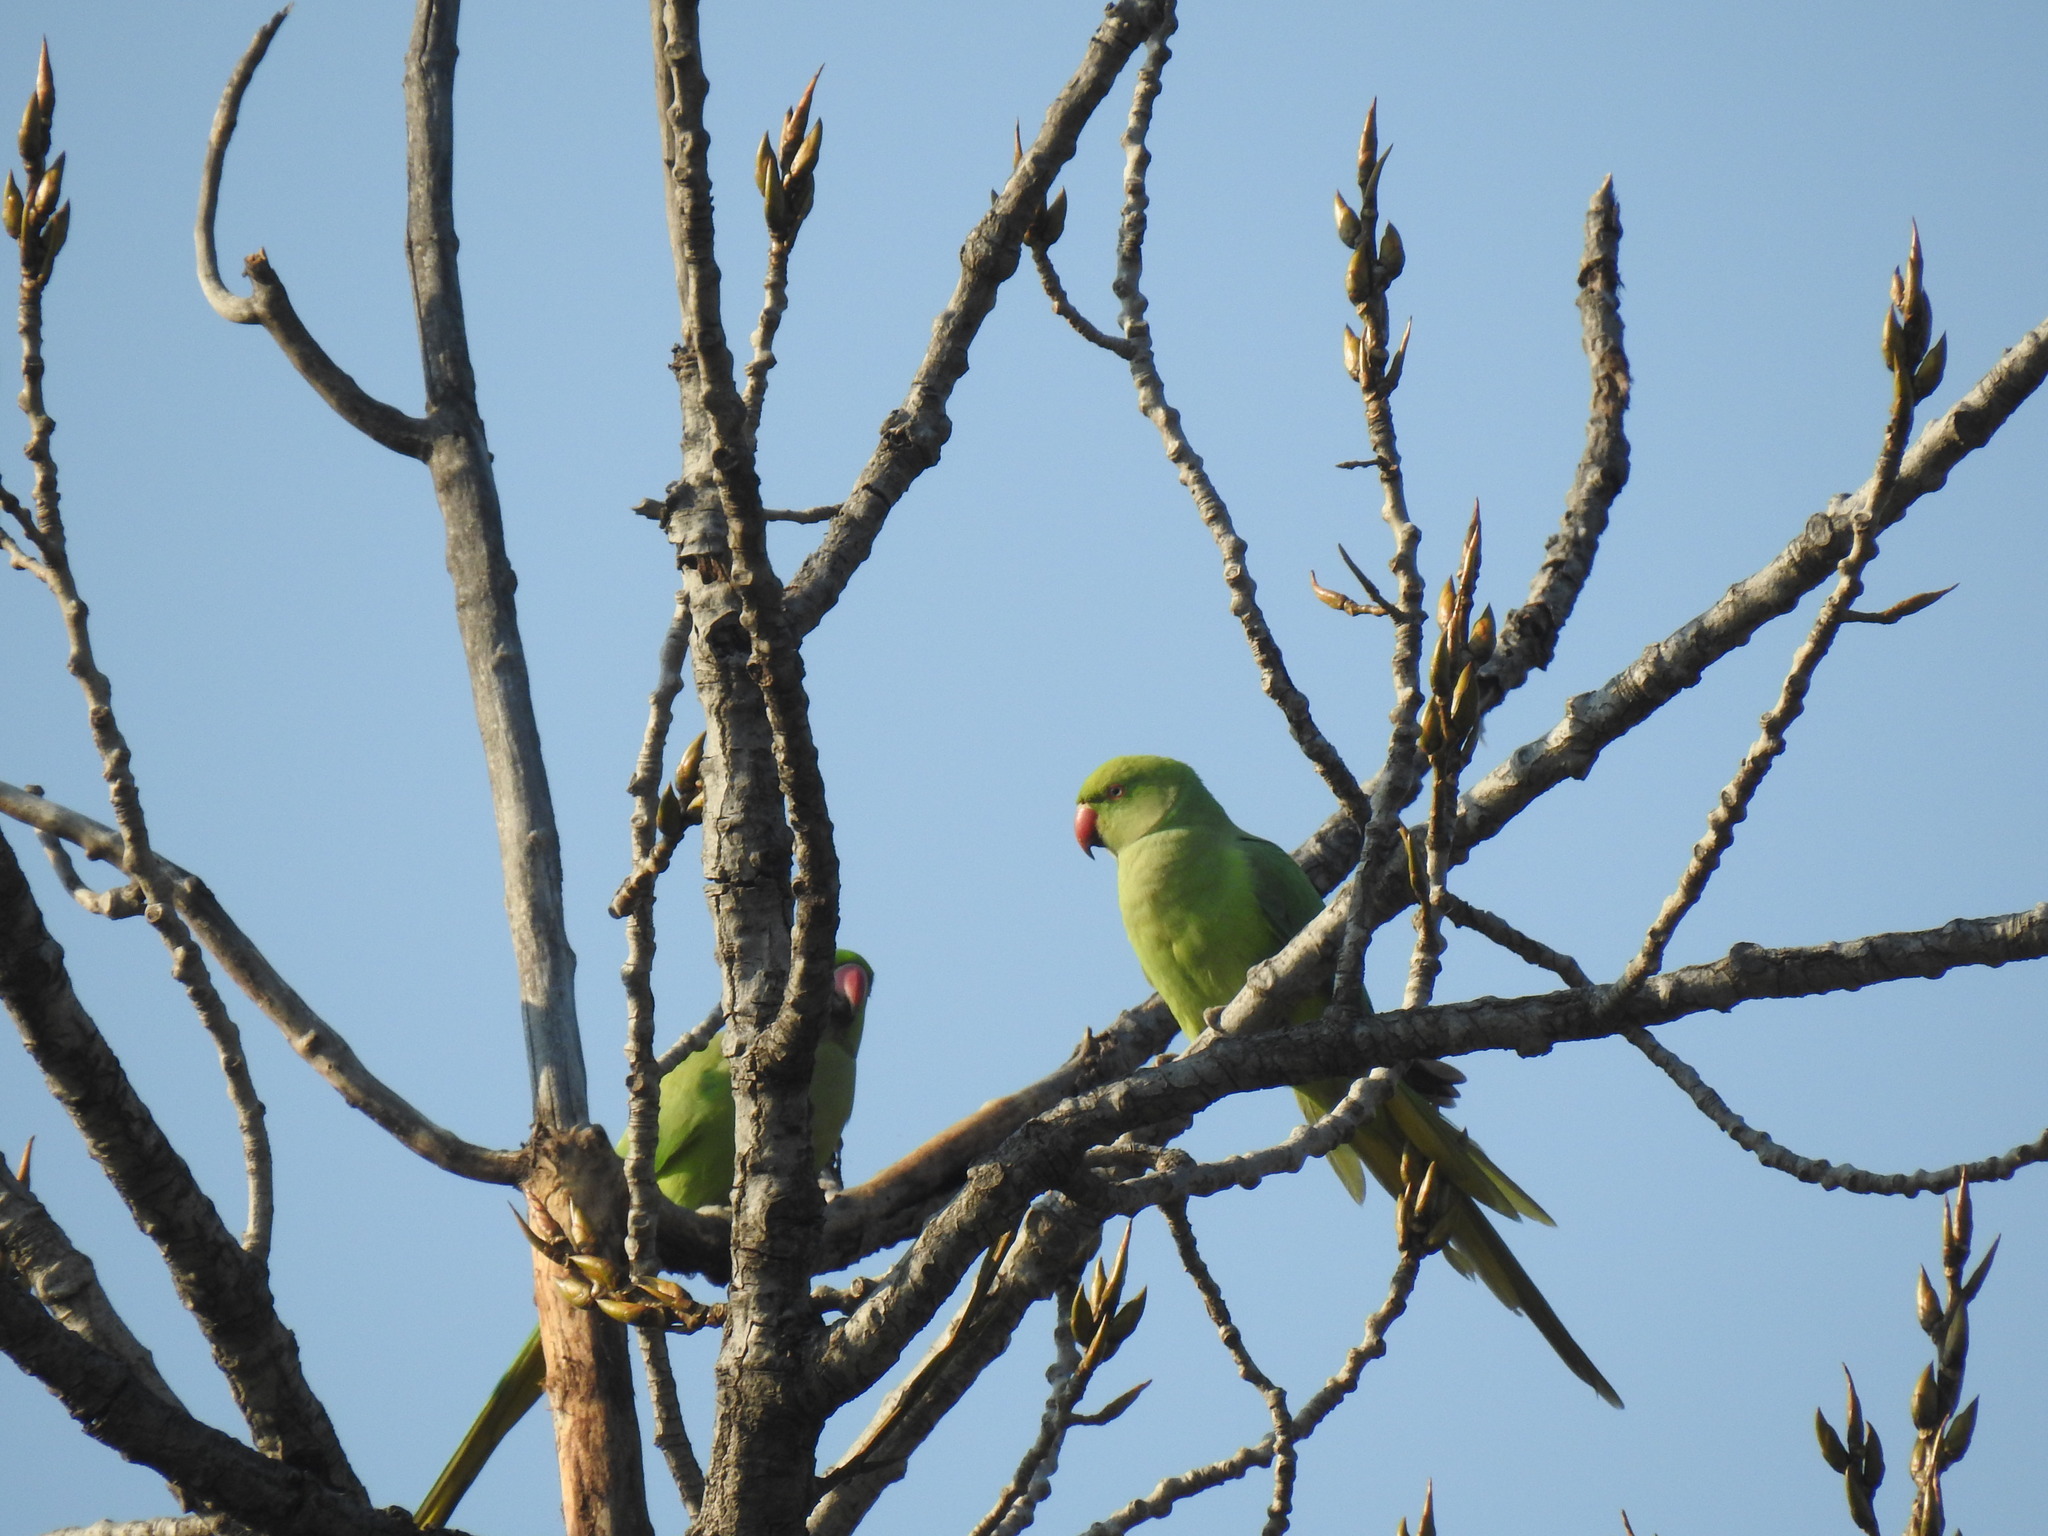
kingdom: Animalia
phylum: Chordata
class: Aves
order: Psittaciformes
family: Psittacidae
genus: Psittacula
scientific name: Psittacula krameri
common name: Rose-ringed parakeet
